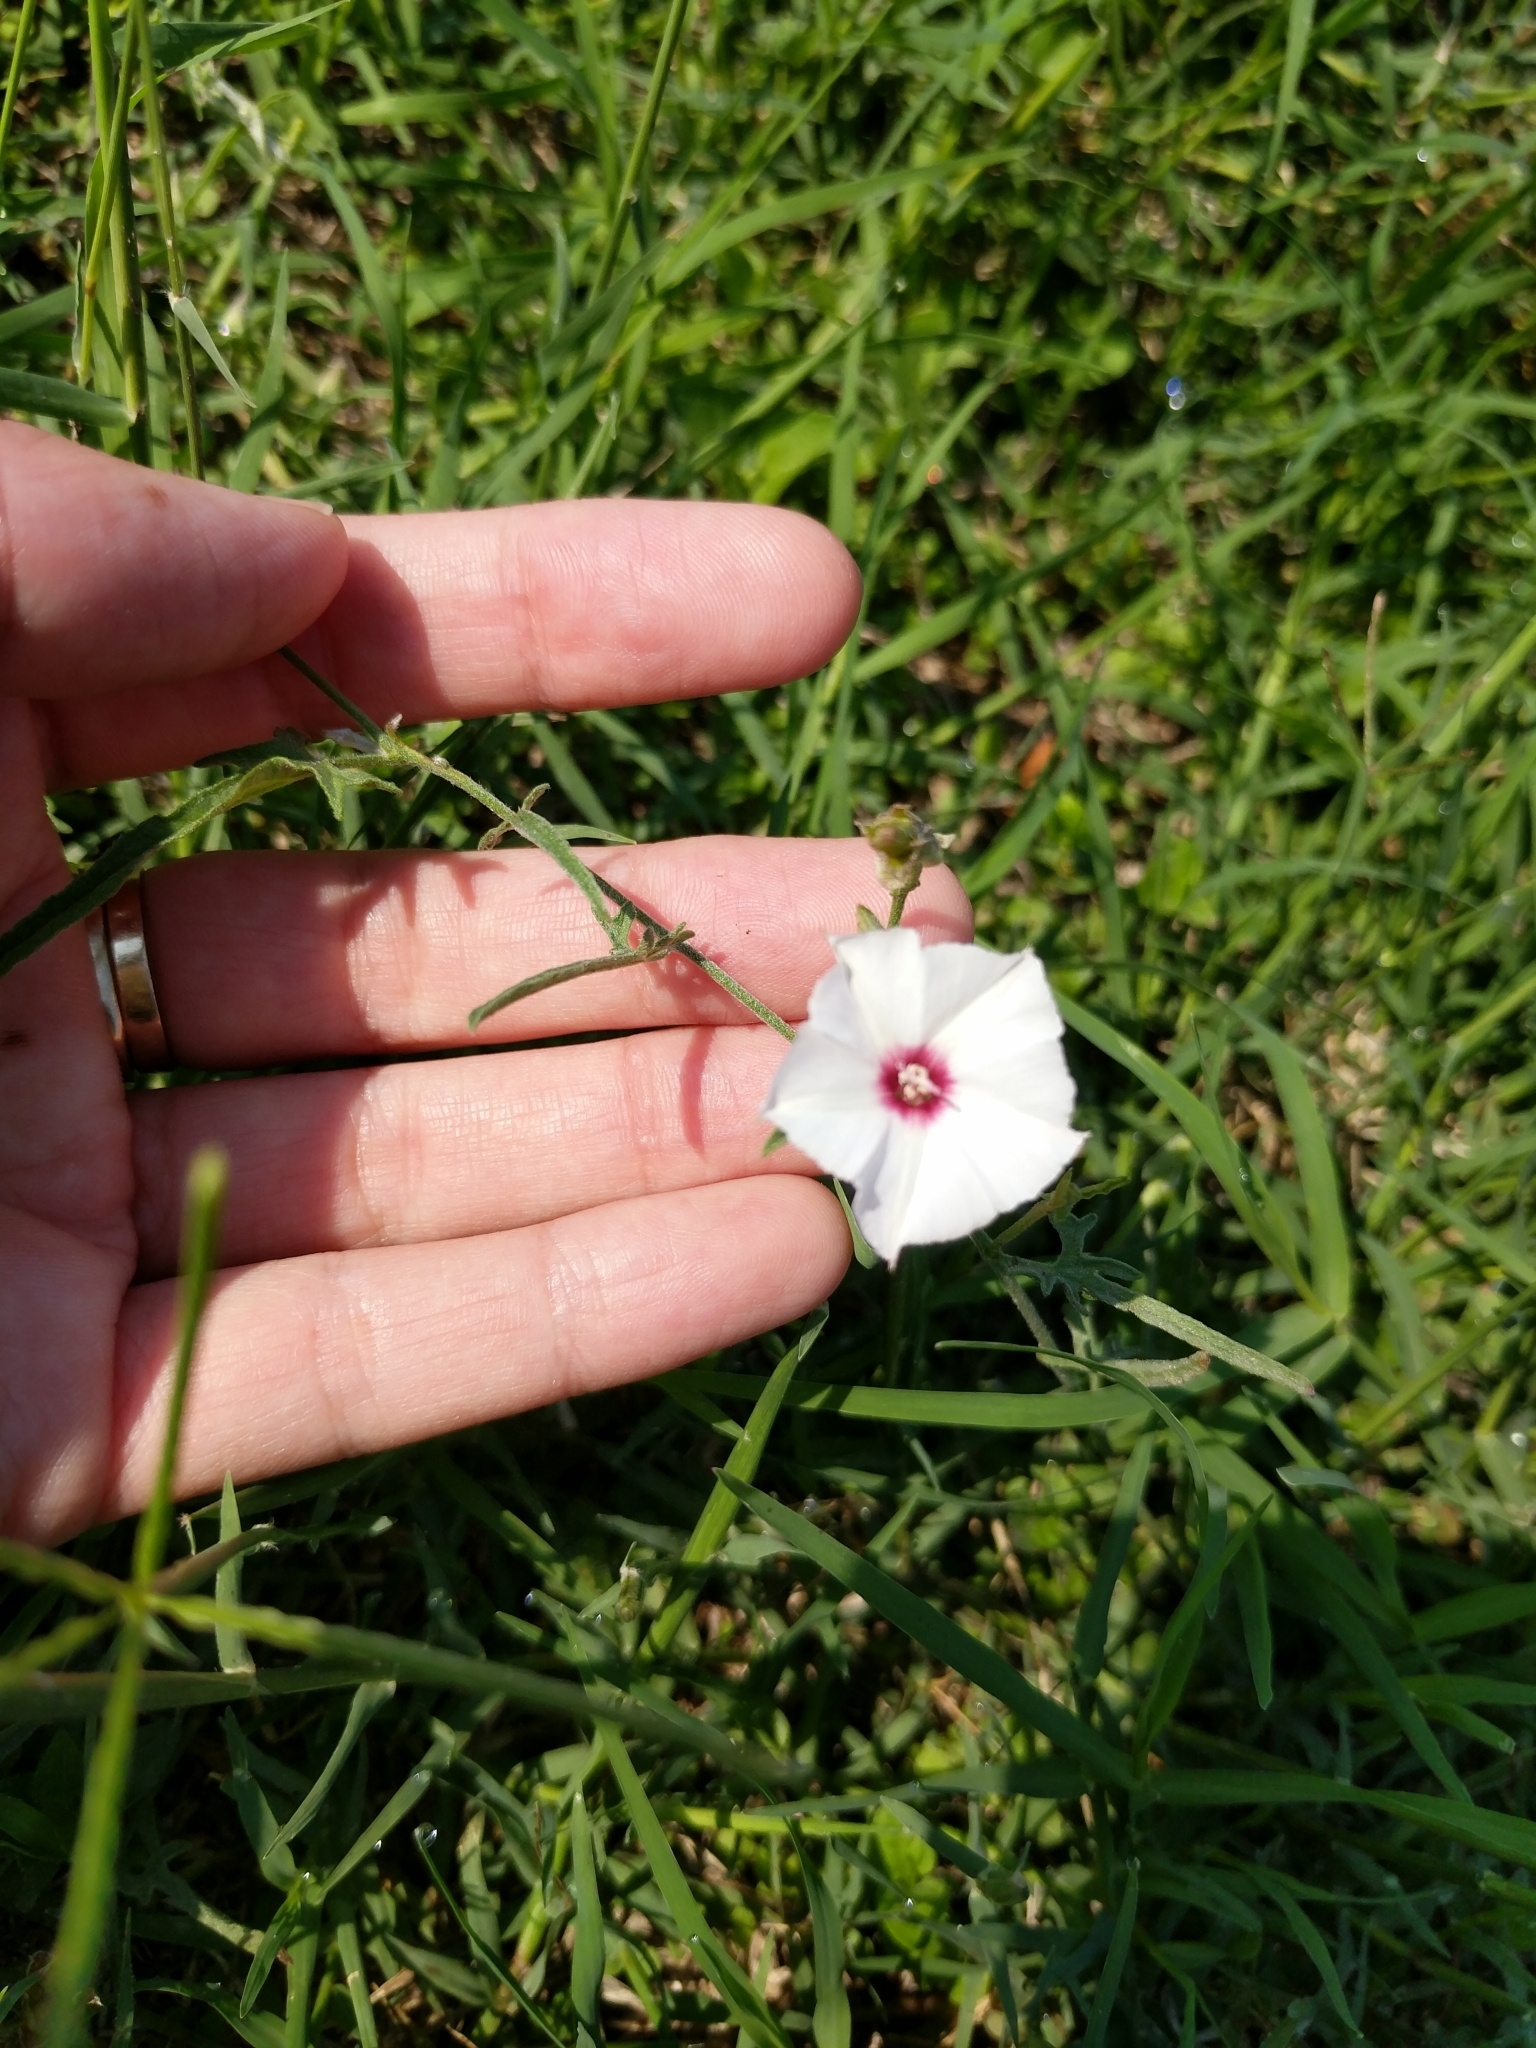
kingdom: Plantae
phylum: Tracheophyta
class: Magnoliopsida
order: Solanales
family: Convolvulaceae
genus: Convolvulus
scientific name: Convolvulus equitans
